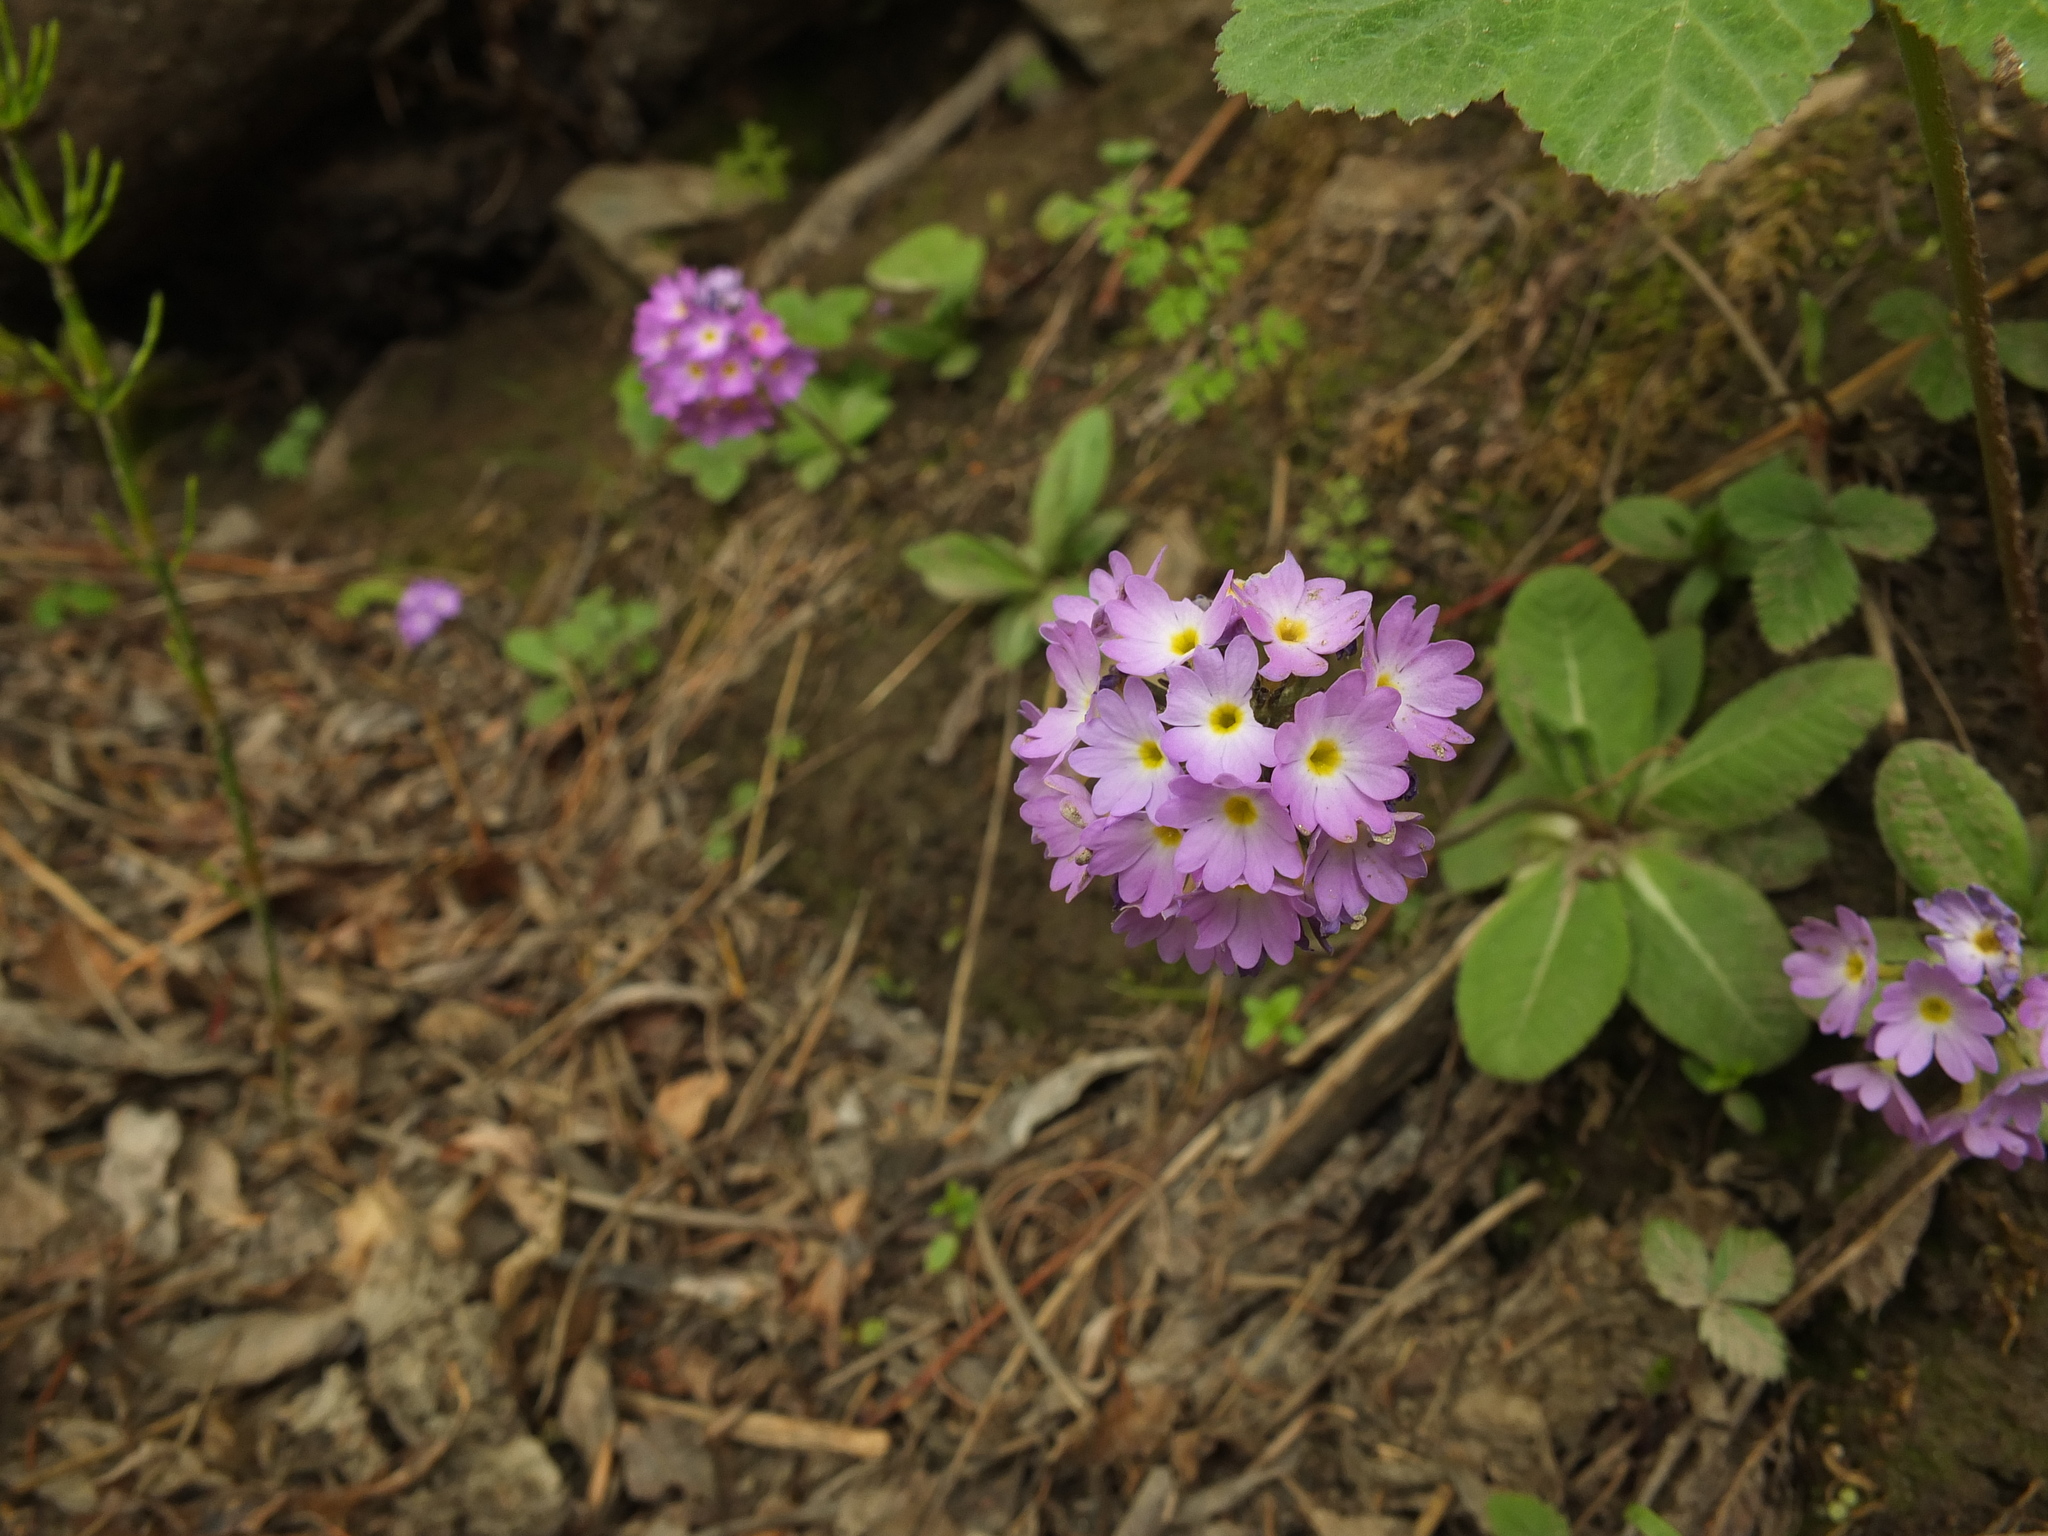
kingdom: Plantae
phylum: Tracheophyta
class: Magnoliopsida
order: Ericales
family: Primulaceae
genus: Primula
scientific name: Primula denticulata
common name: Drumstick primula
